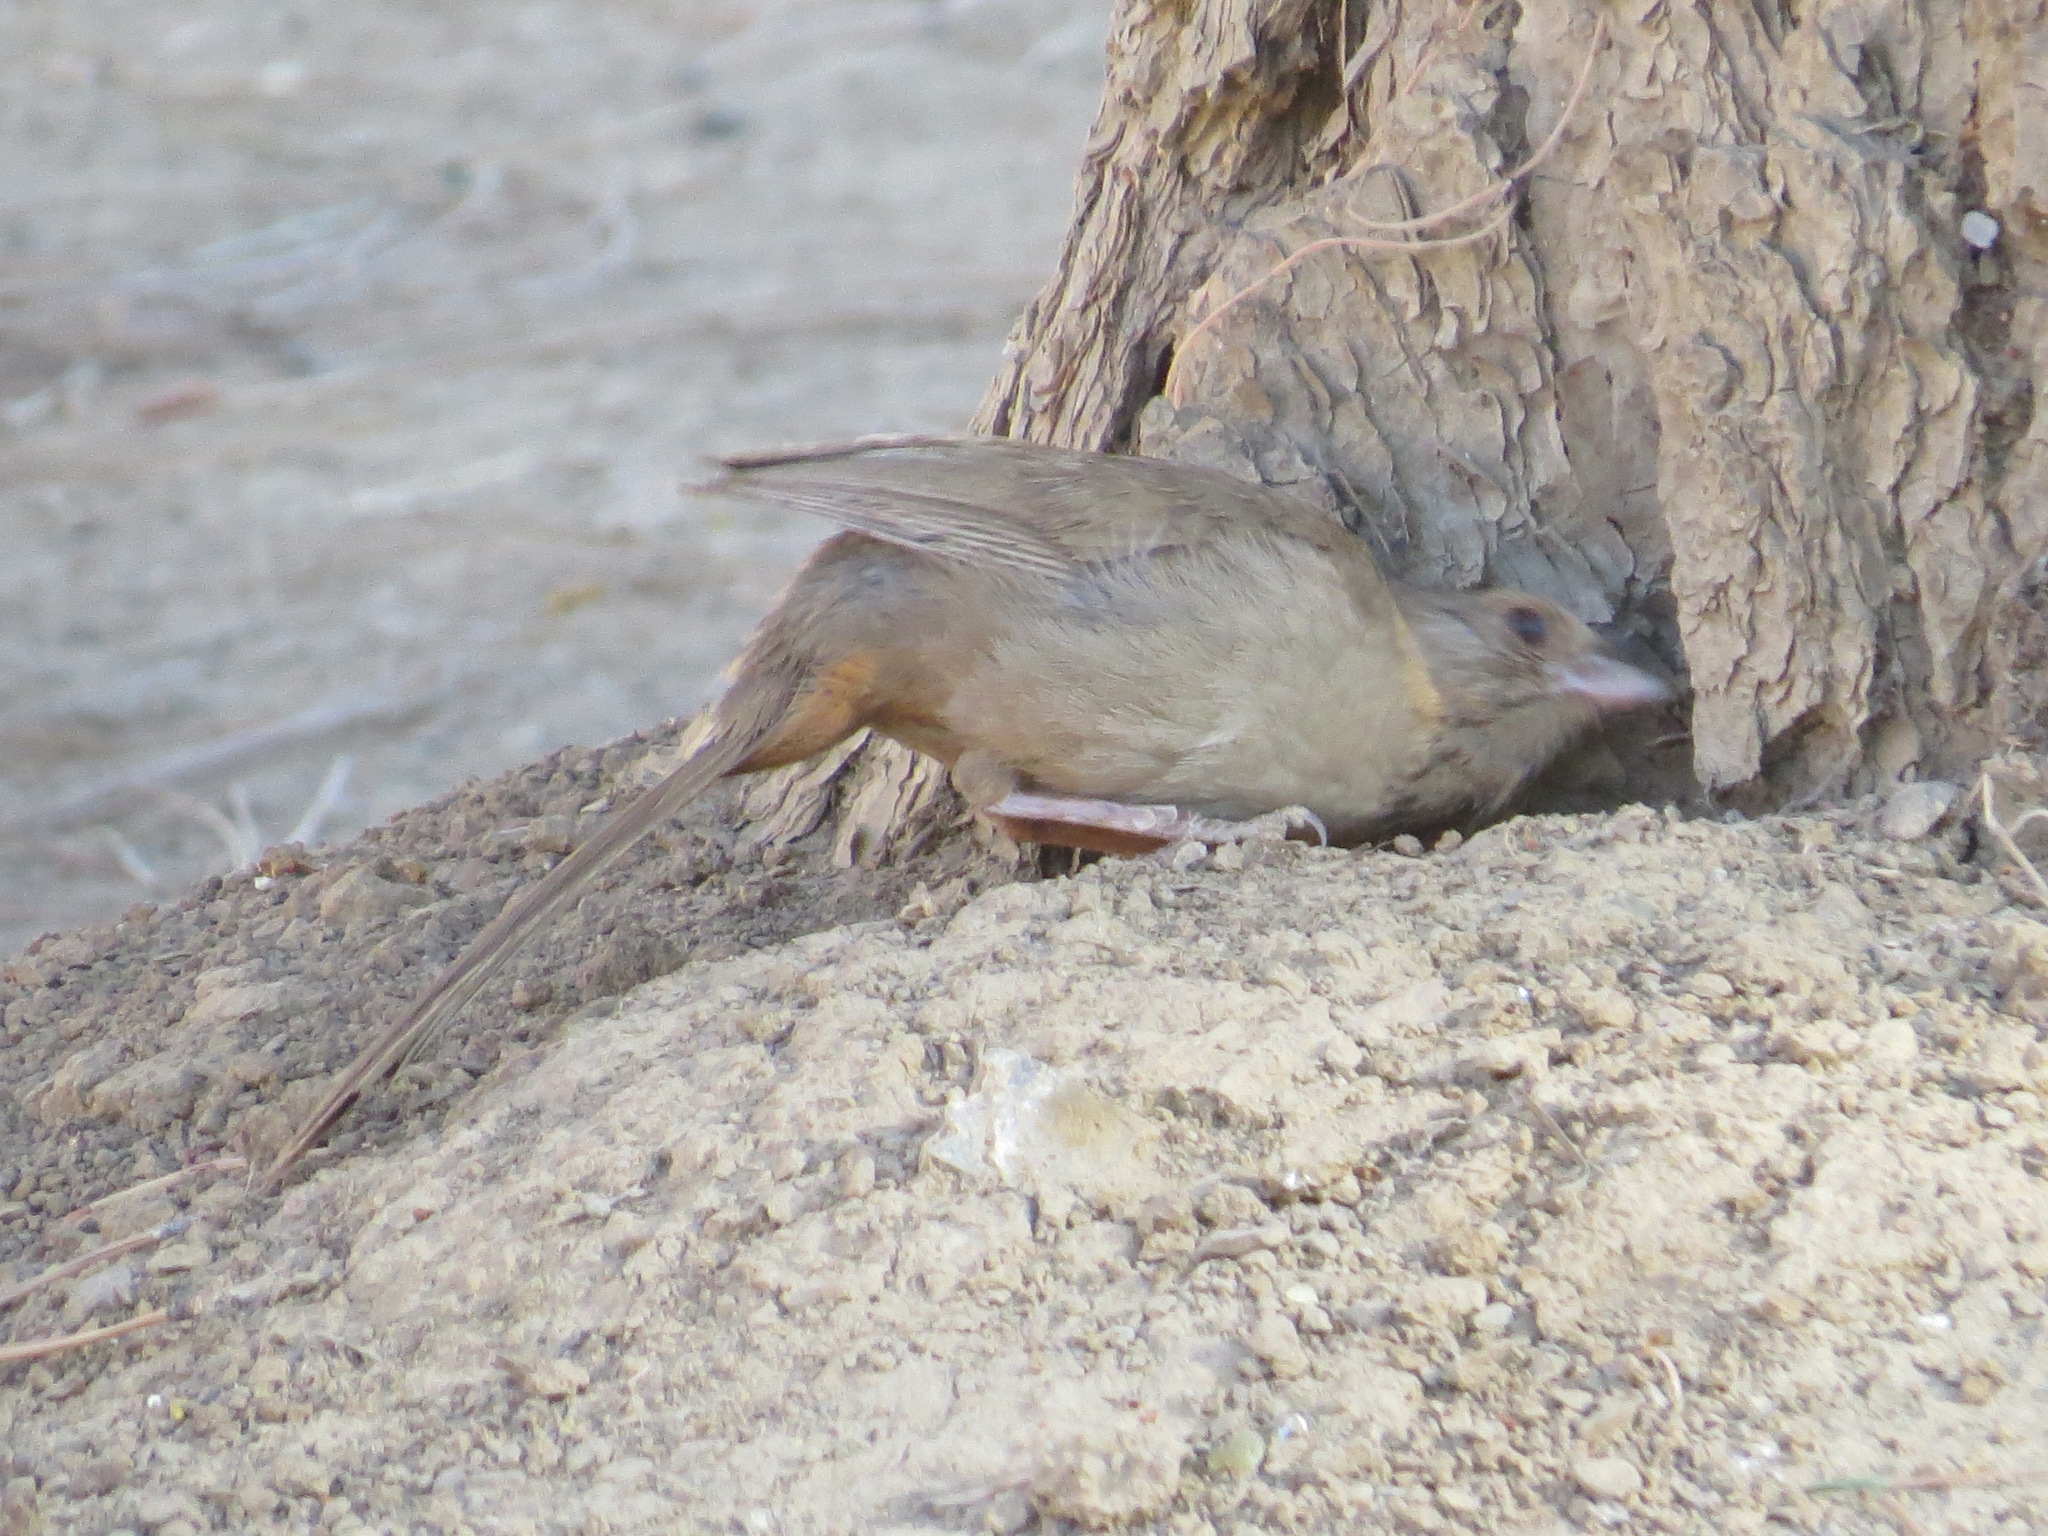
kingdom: Animalia
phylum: Chordata
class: Aves
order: Passeriformes
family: Passerellidae
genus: Melozone
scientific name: Melozone crissalis
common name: California towhee
